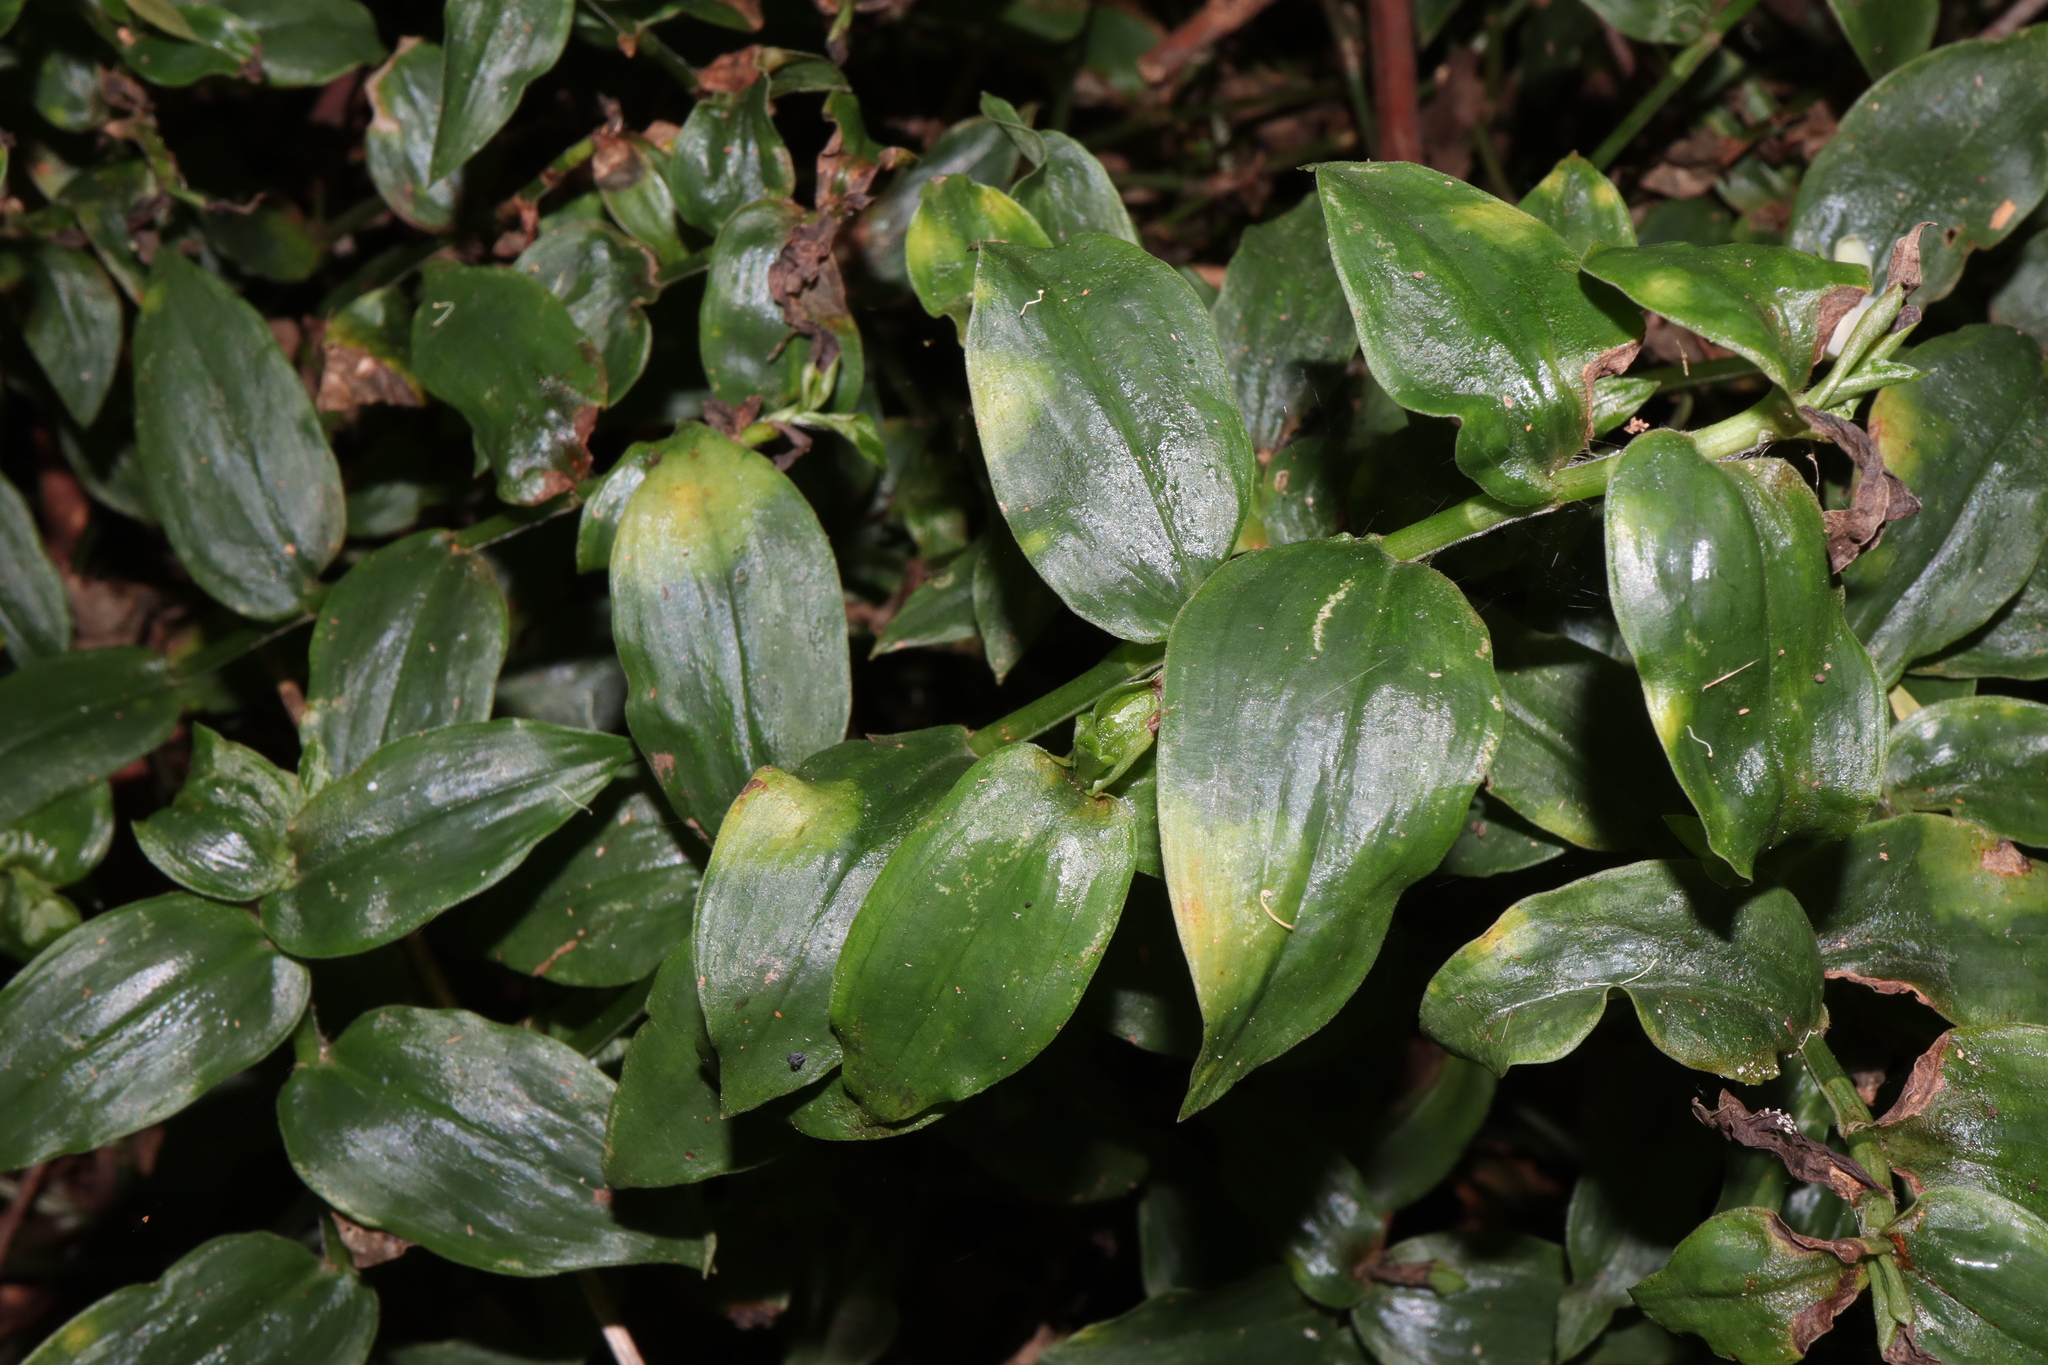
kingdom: Fungi
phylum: Basidiomycota
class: Exobasidiomycetes
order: Exobasidiales
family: Brachybasidiaceae
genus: Kordyana
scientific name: Kordyana brasiliensis
